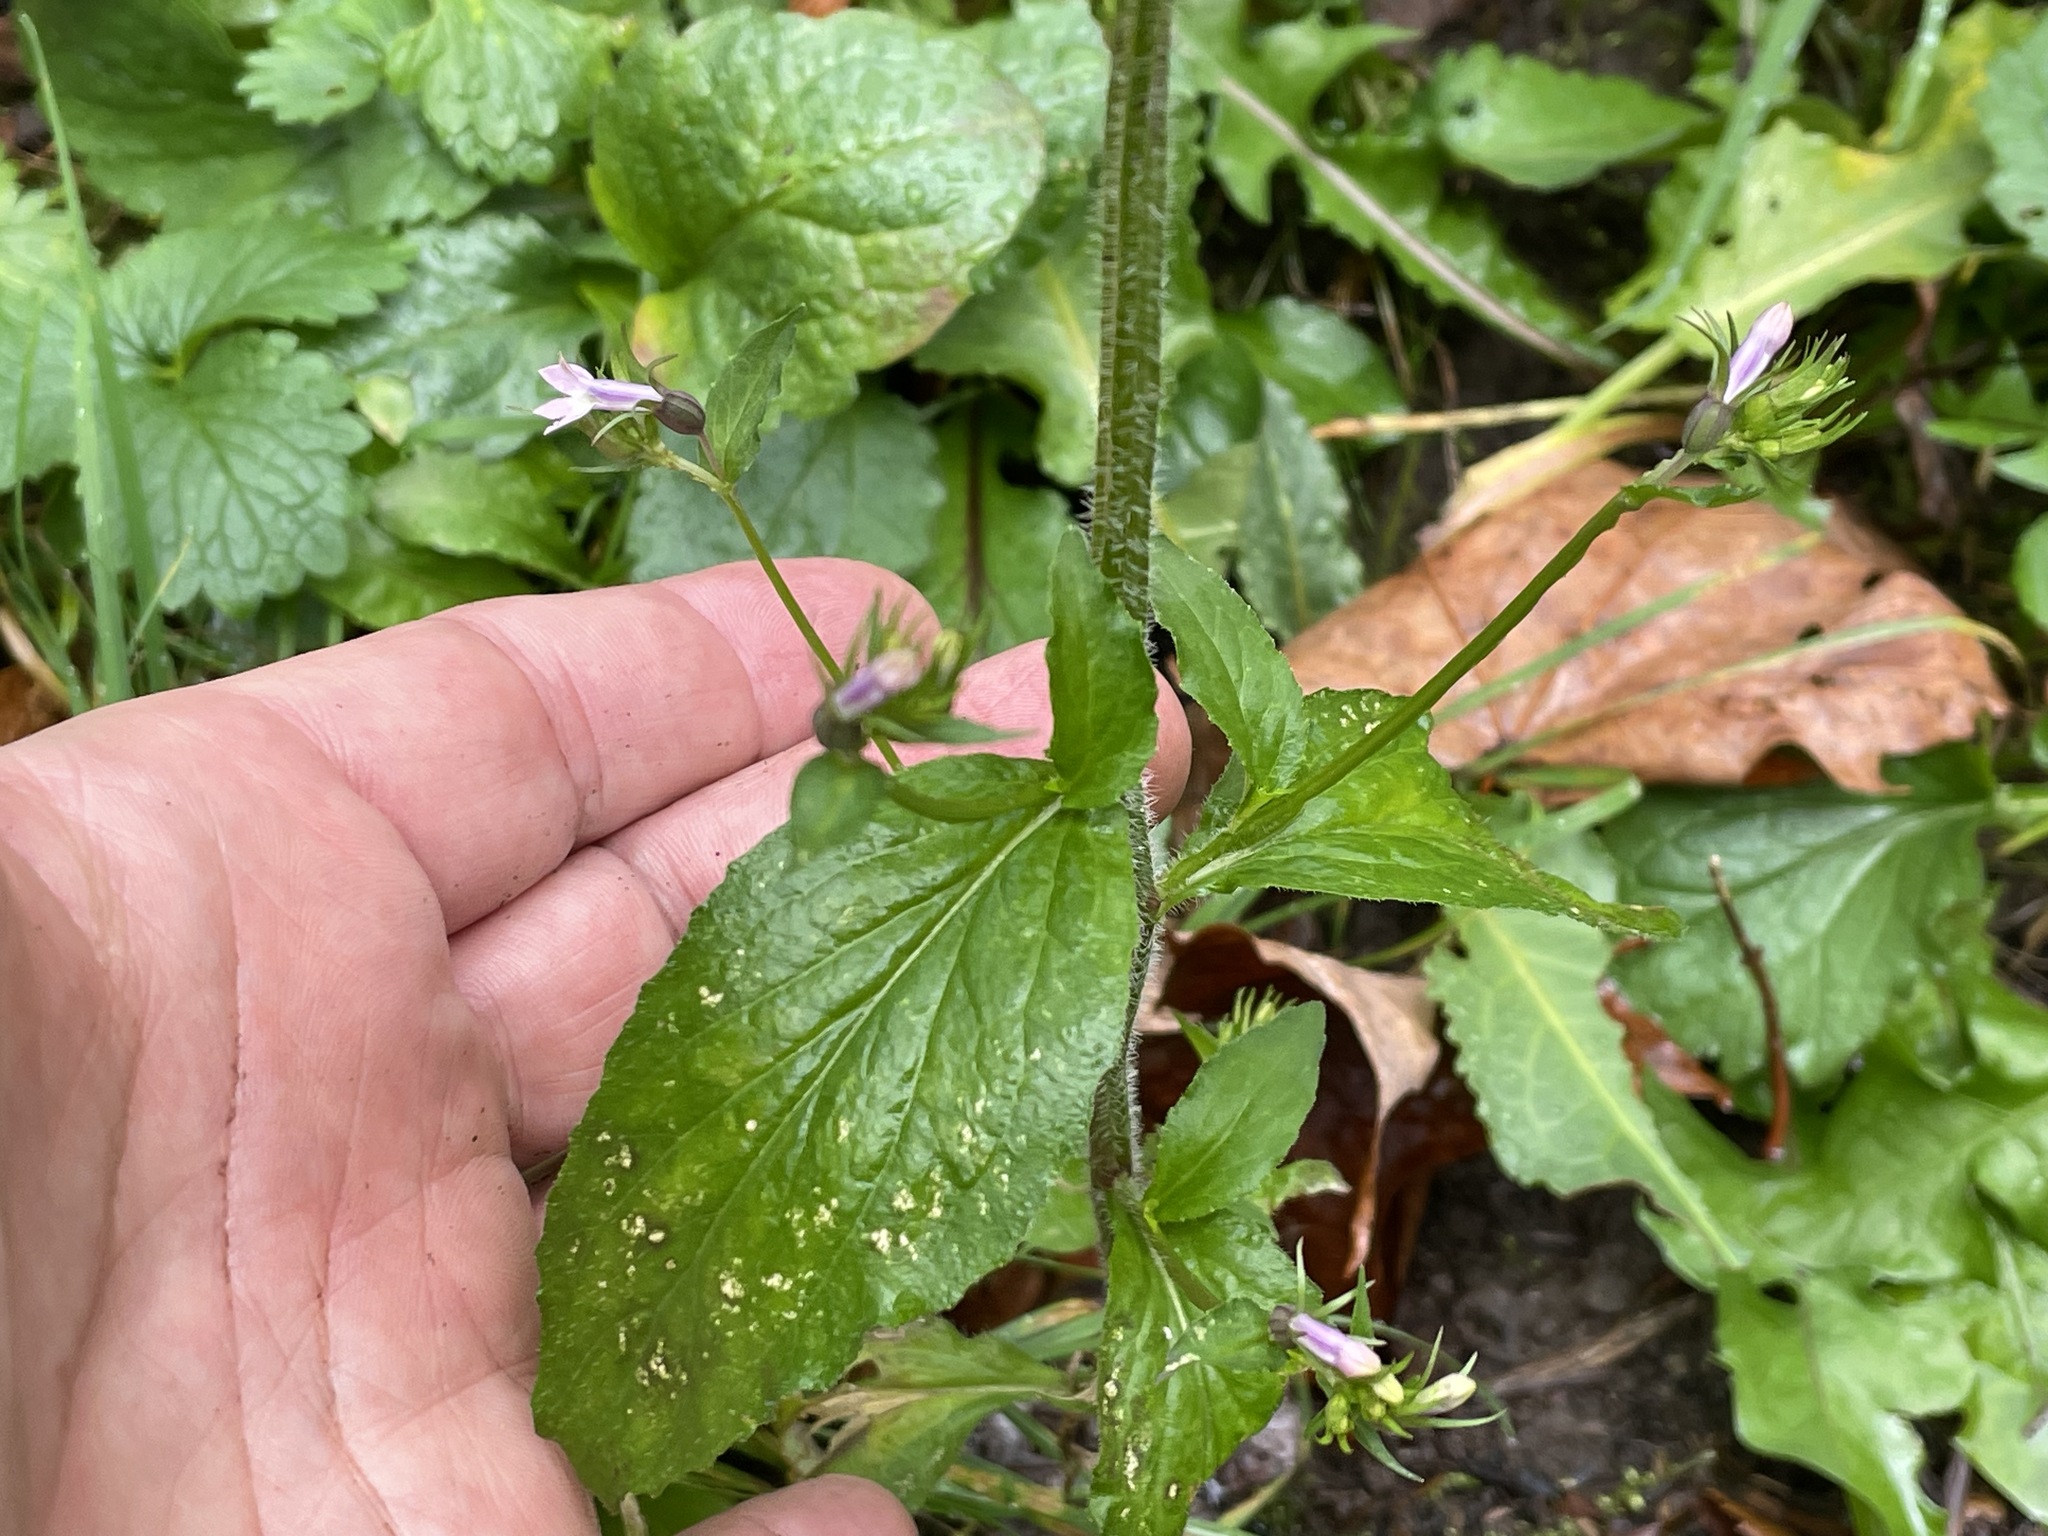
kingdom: Plantae
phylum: Tracheophyta
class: Magnoliopsida
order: Asterales
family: Campanulaceae
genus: Lobelia
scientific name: Lobelia inflata
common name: Indian tobacco
